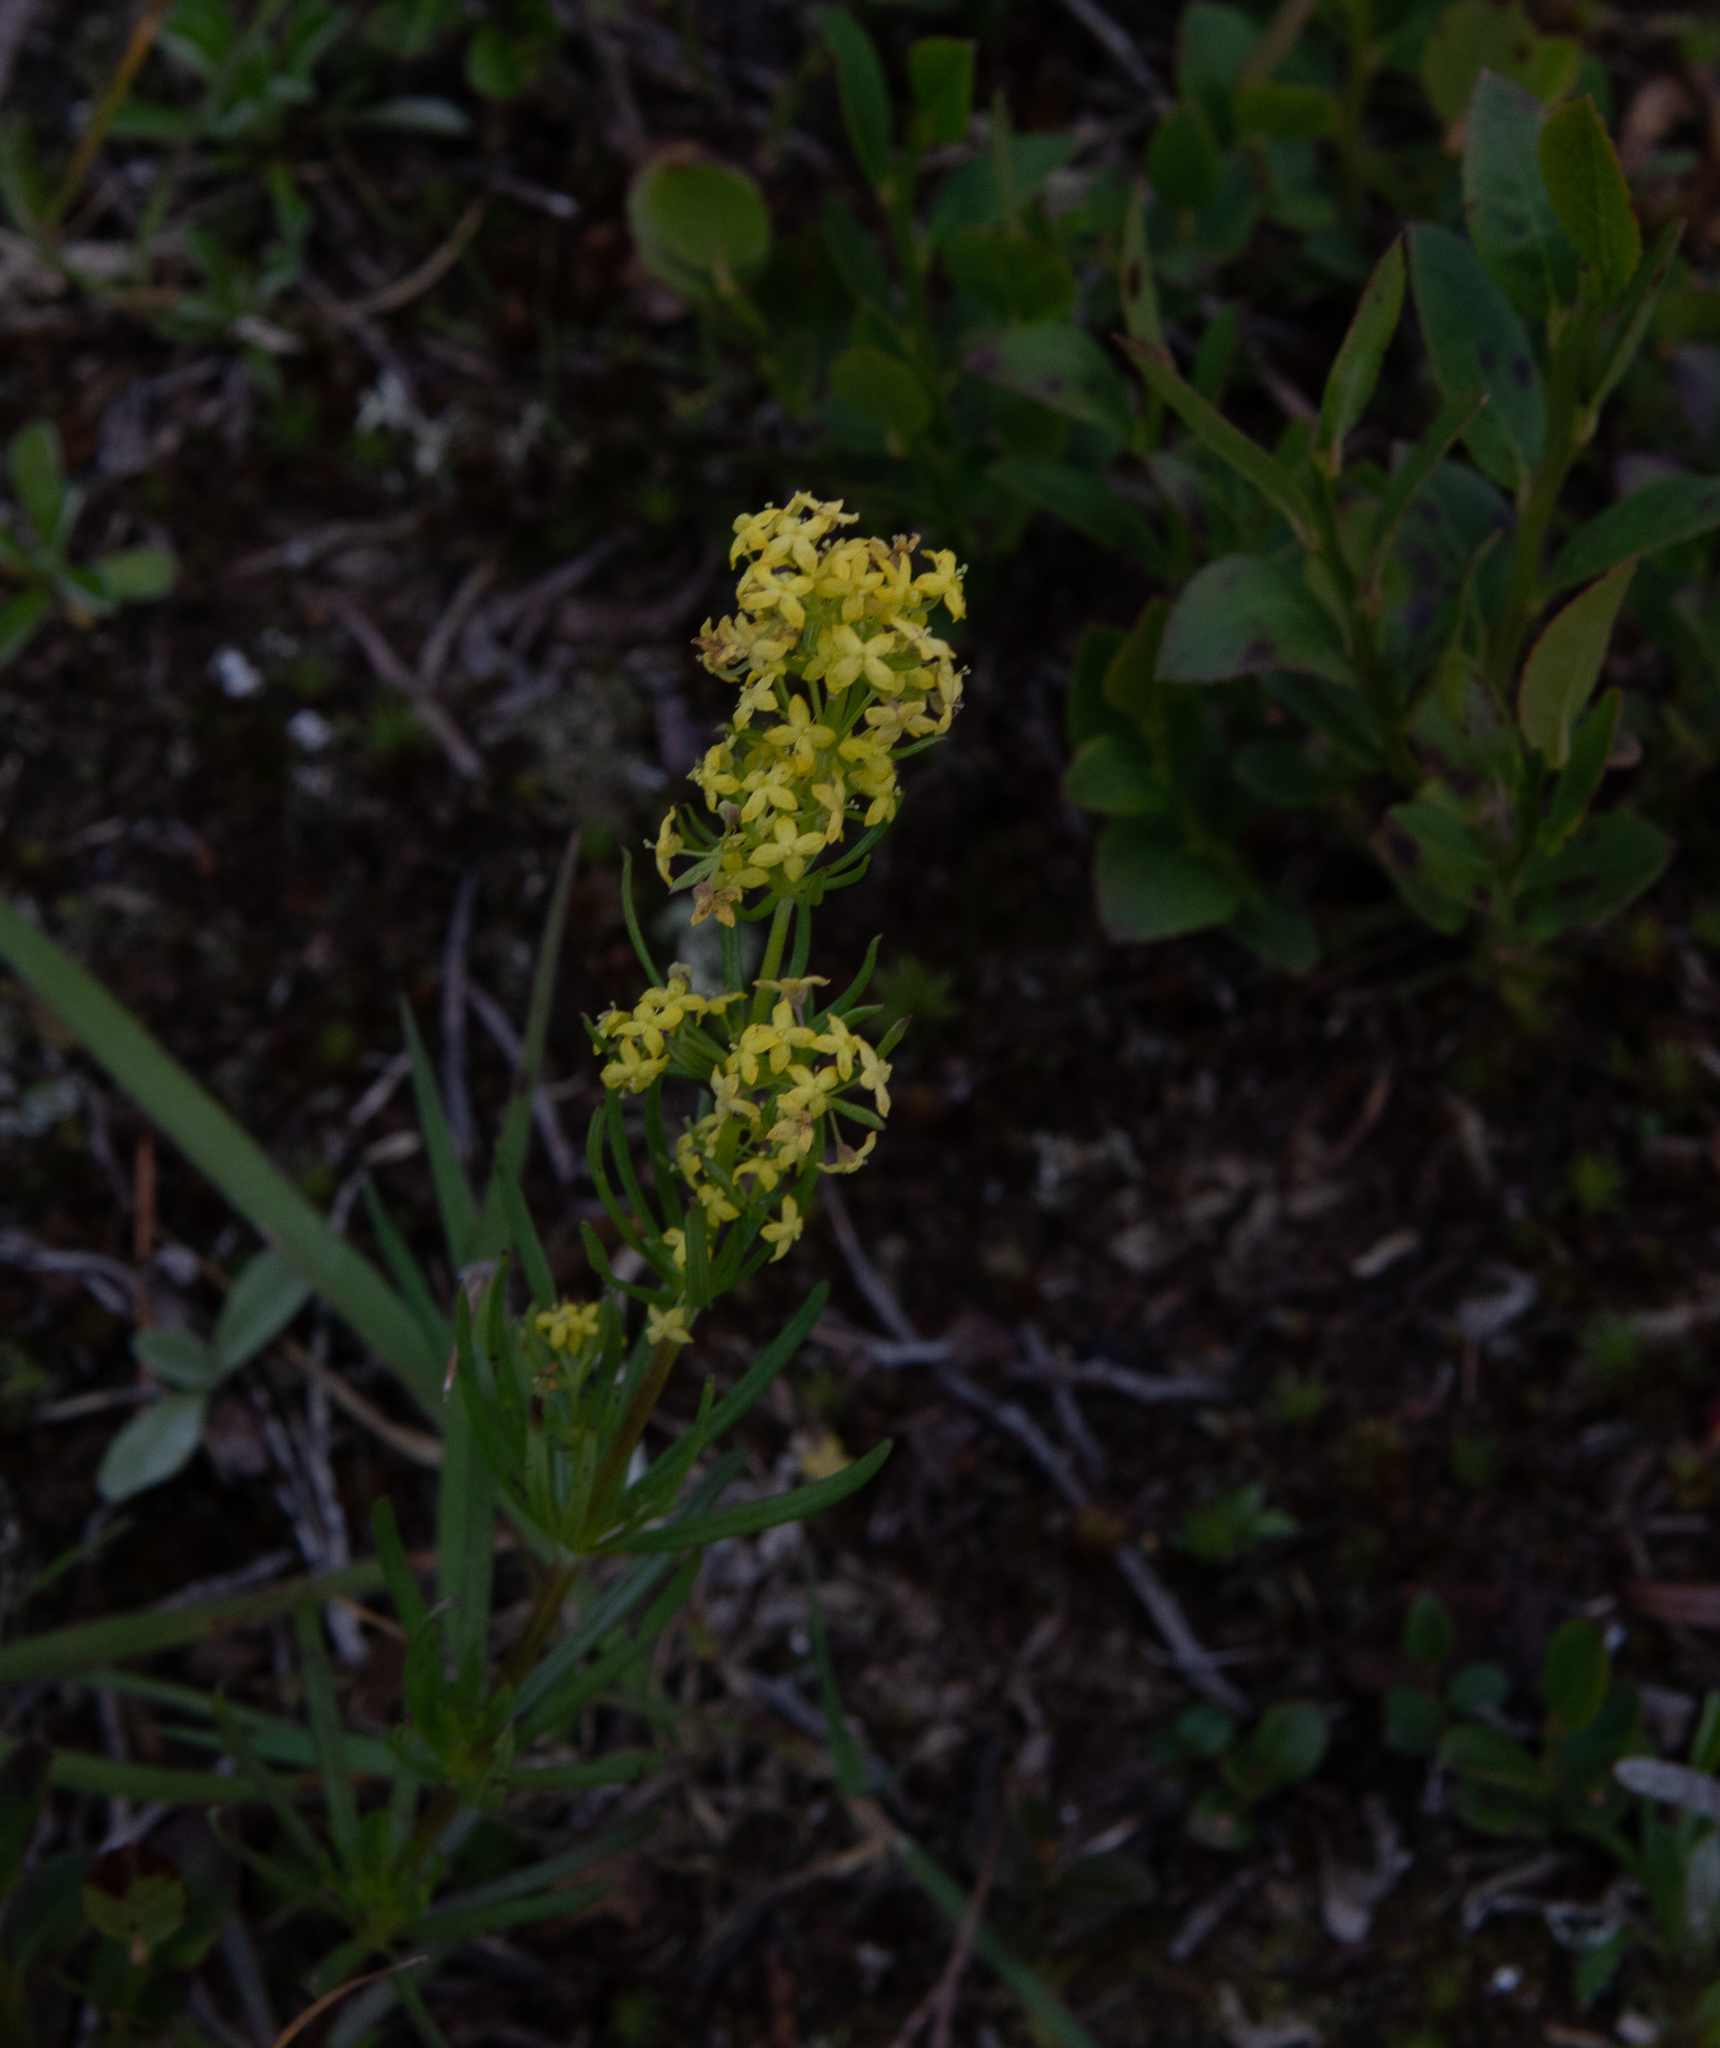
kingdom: Plantae
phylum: Tracheophyta
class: Magnoliopsida
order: Gentianales
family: Rubiaceae
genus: Galium
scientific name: Galium verum
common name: Lady's bedstraw
